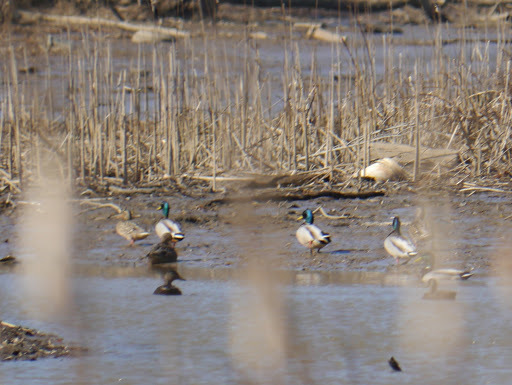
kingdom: Animalia
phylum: Chordata
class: Aves
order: Anseriformes
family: Anatidae
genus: Anas
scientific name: Anas platyrhynchos
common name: Mallard
